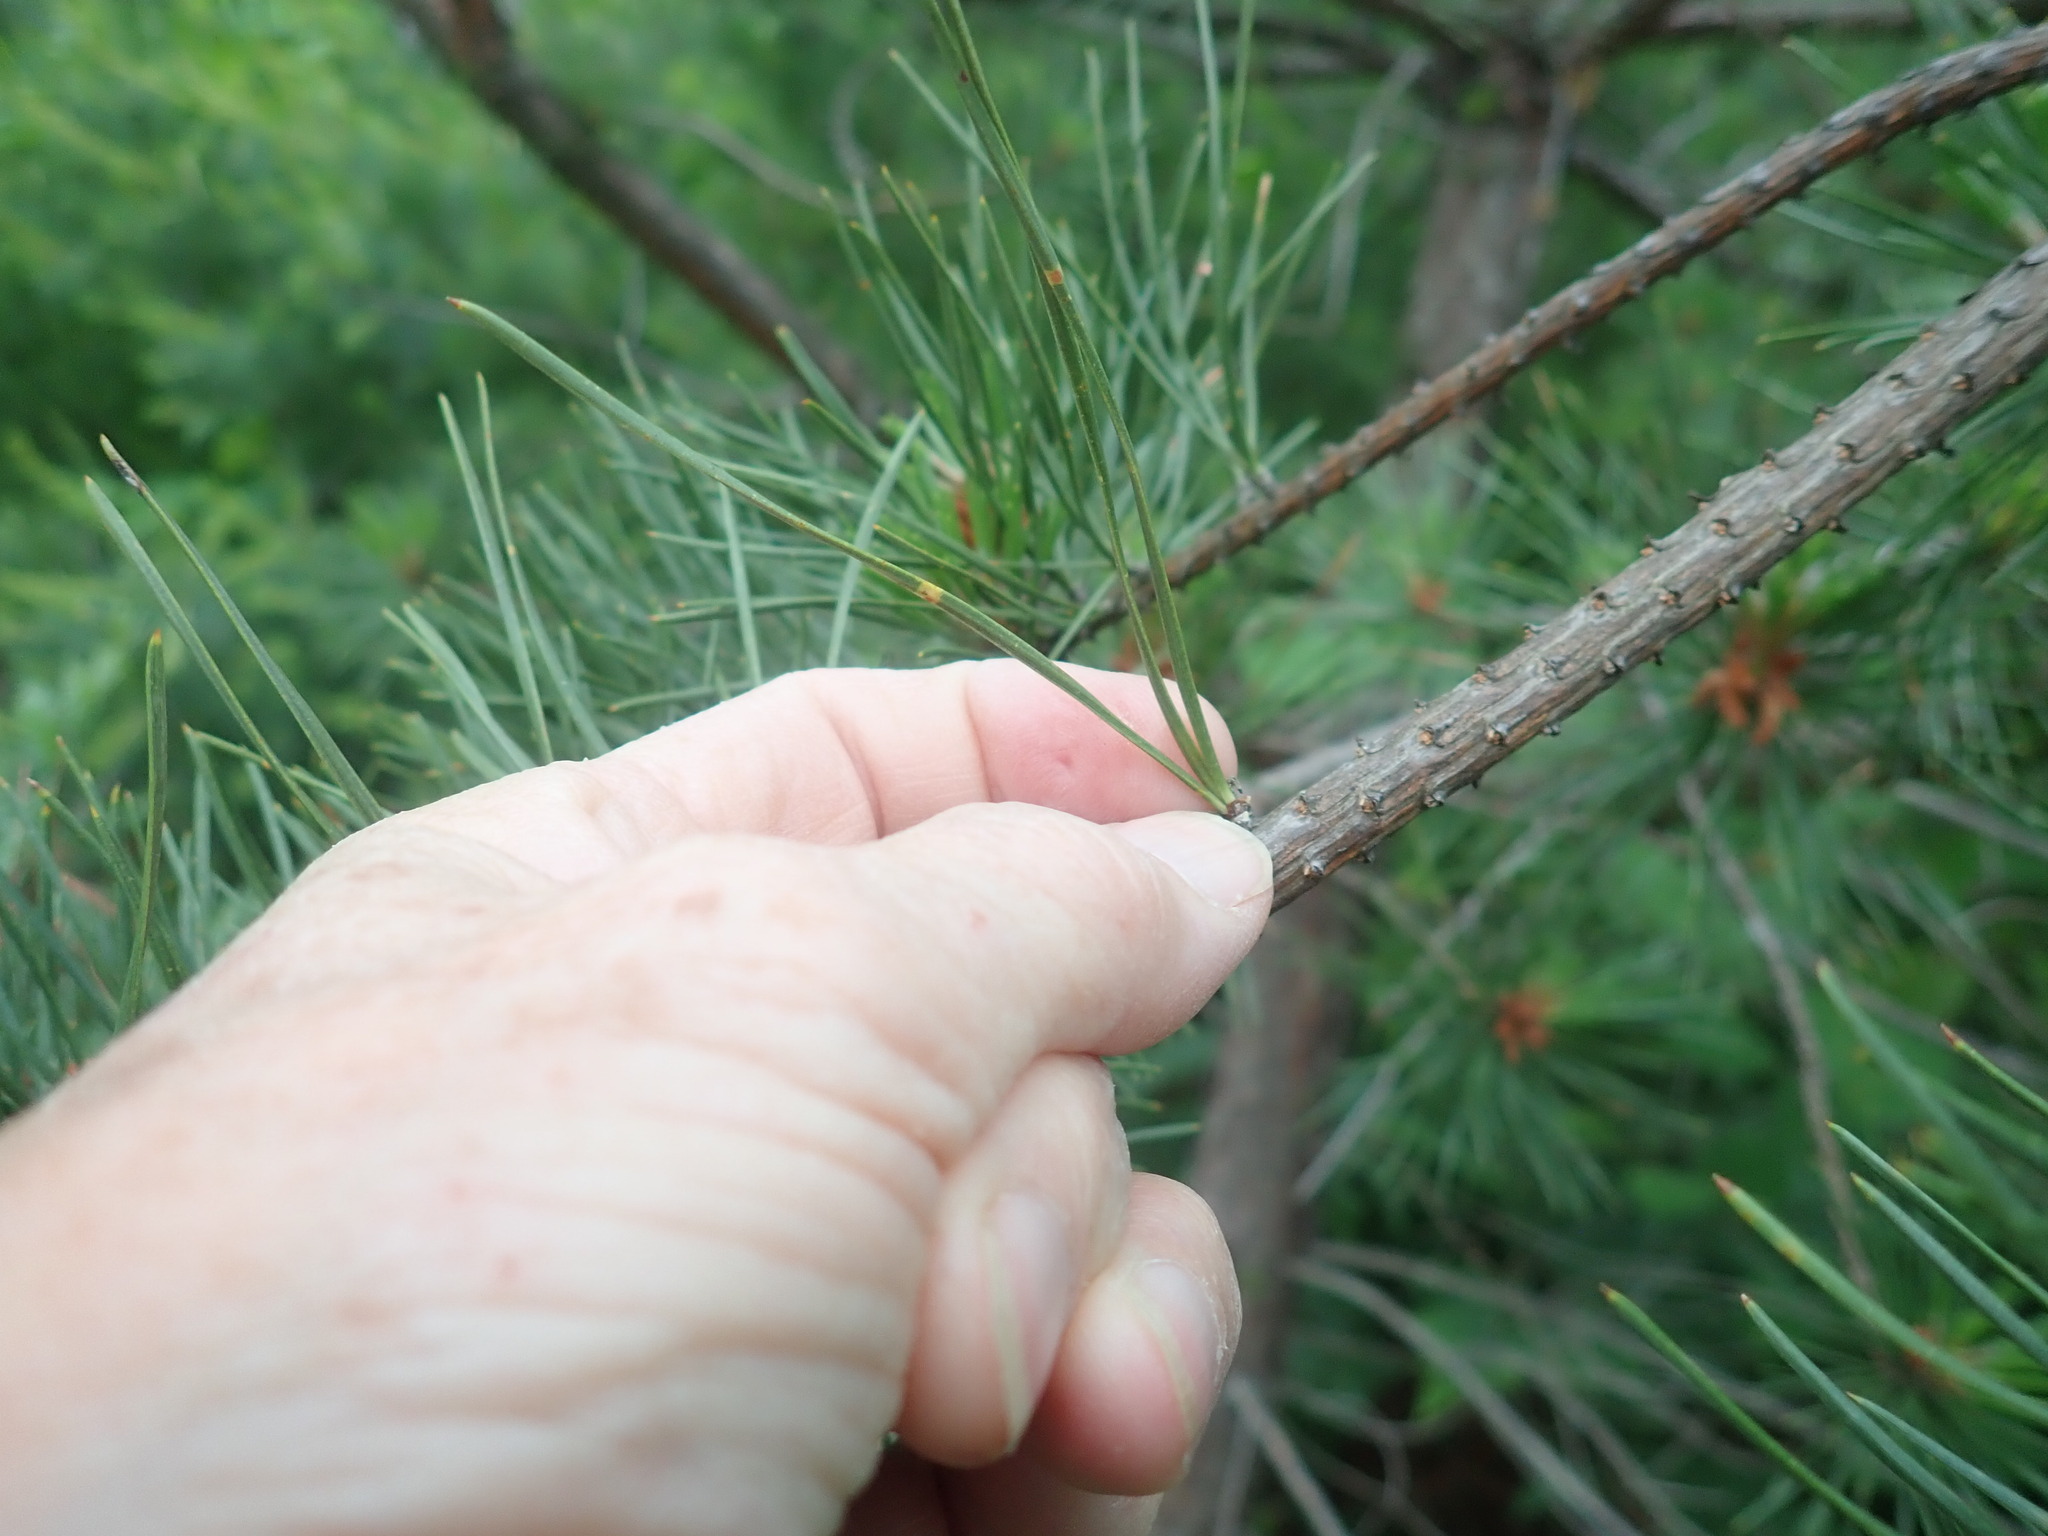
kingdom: Plantae
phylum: Tracheophyta
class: Pinopsida
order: Pinales
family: Pinaceae
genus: Pinus
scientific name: Pinus rigida
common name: Pitch pine
